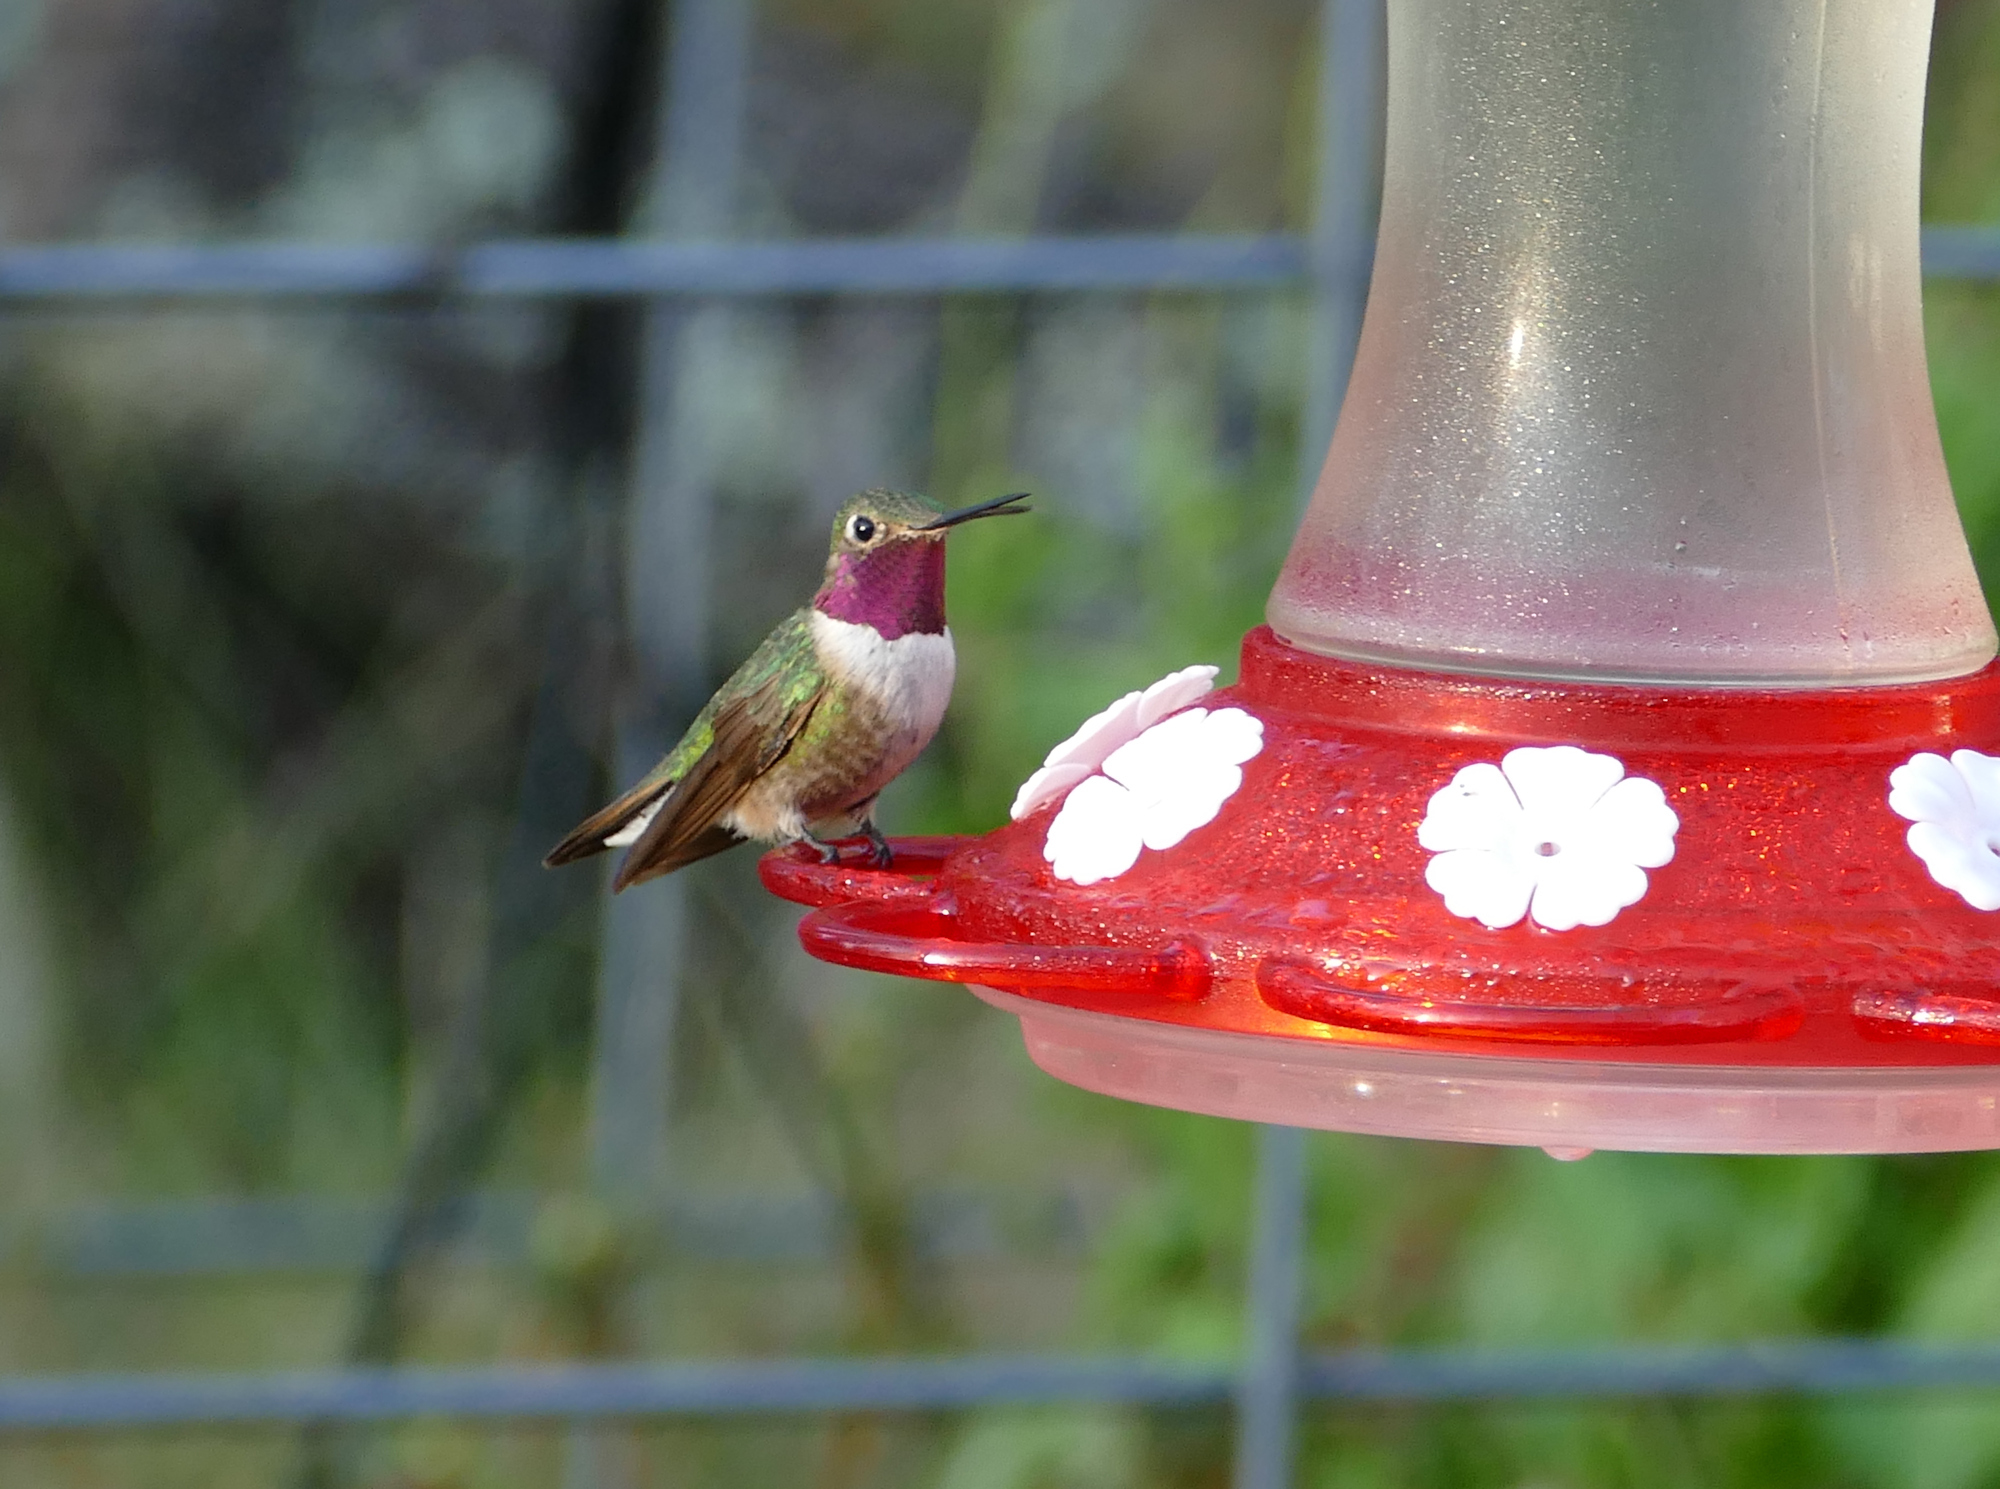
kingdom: Animalia
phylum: Chordata
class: Aves
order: Apodiformes
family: Trochilidae
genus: Selasphorus
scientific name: Selasphorus platycercus
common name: Broad-tailed hummingbird
